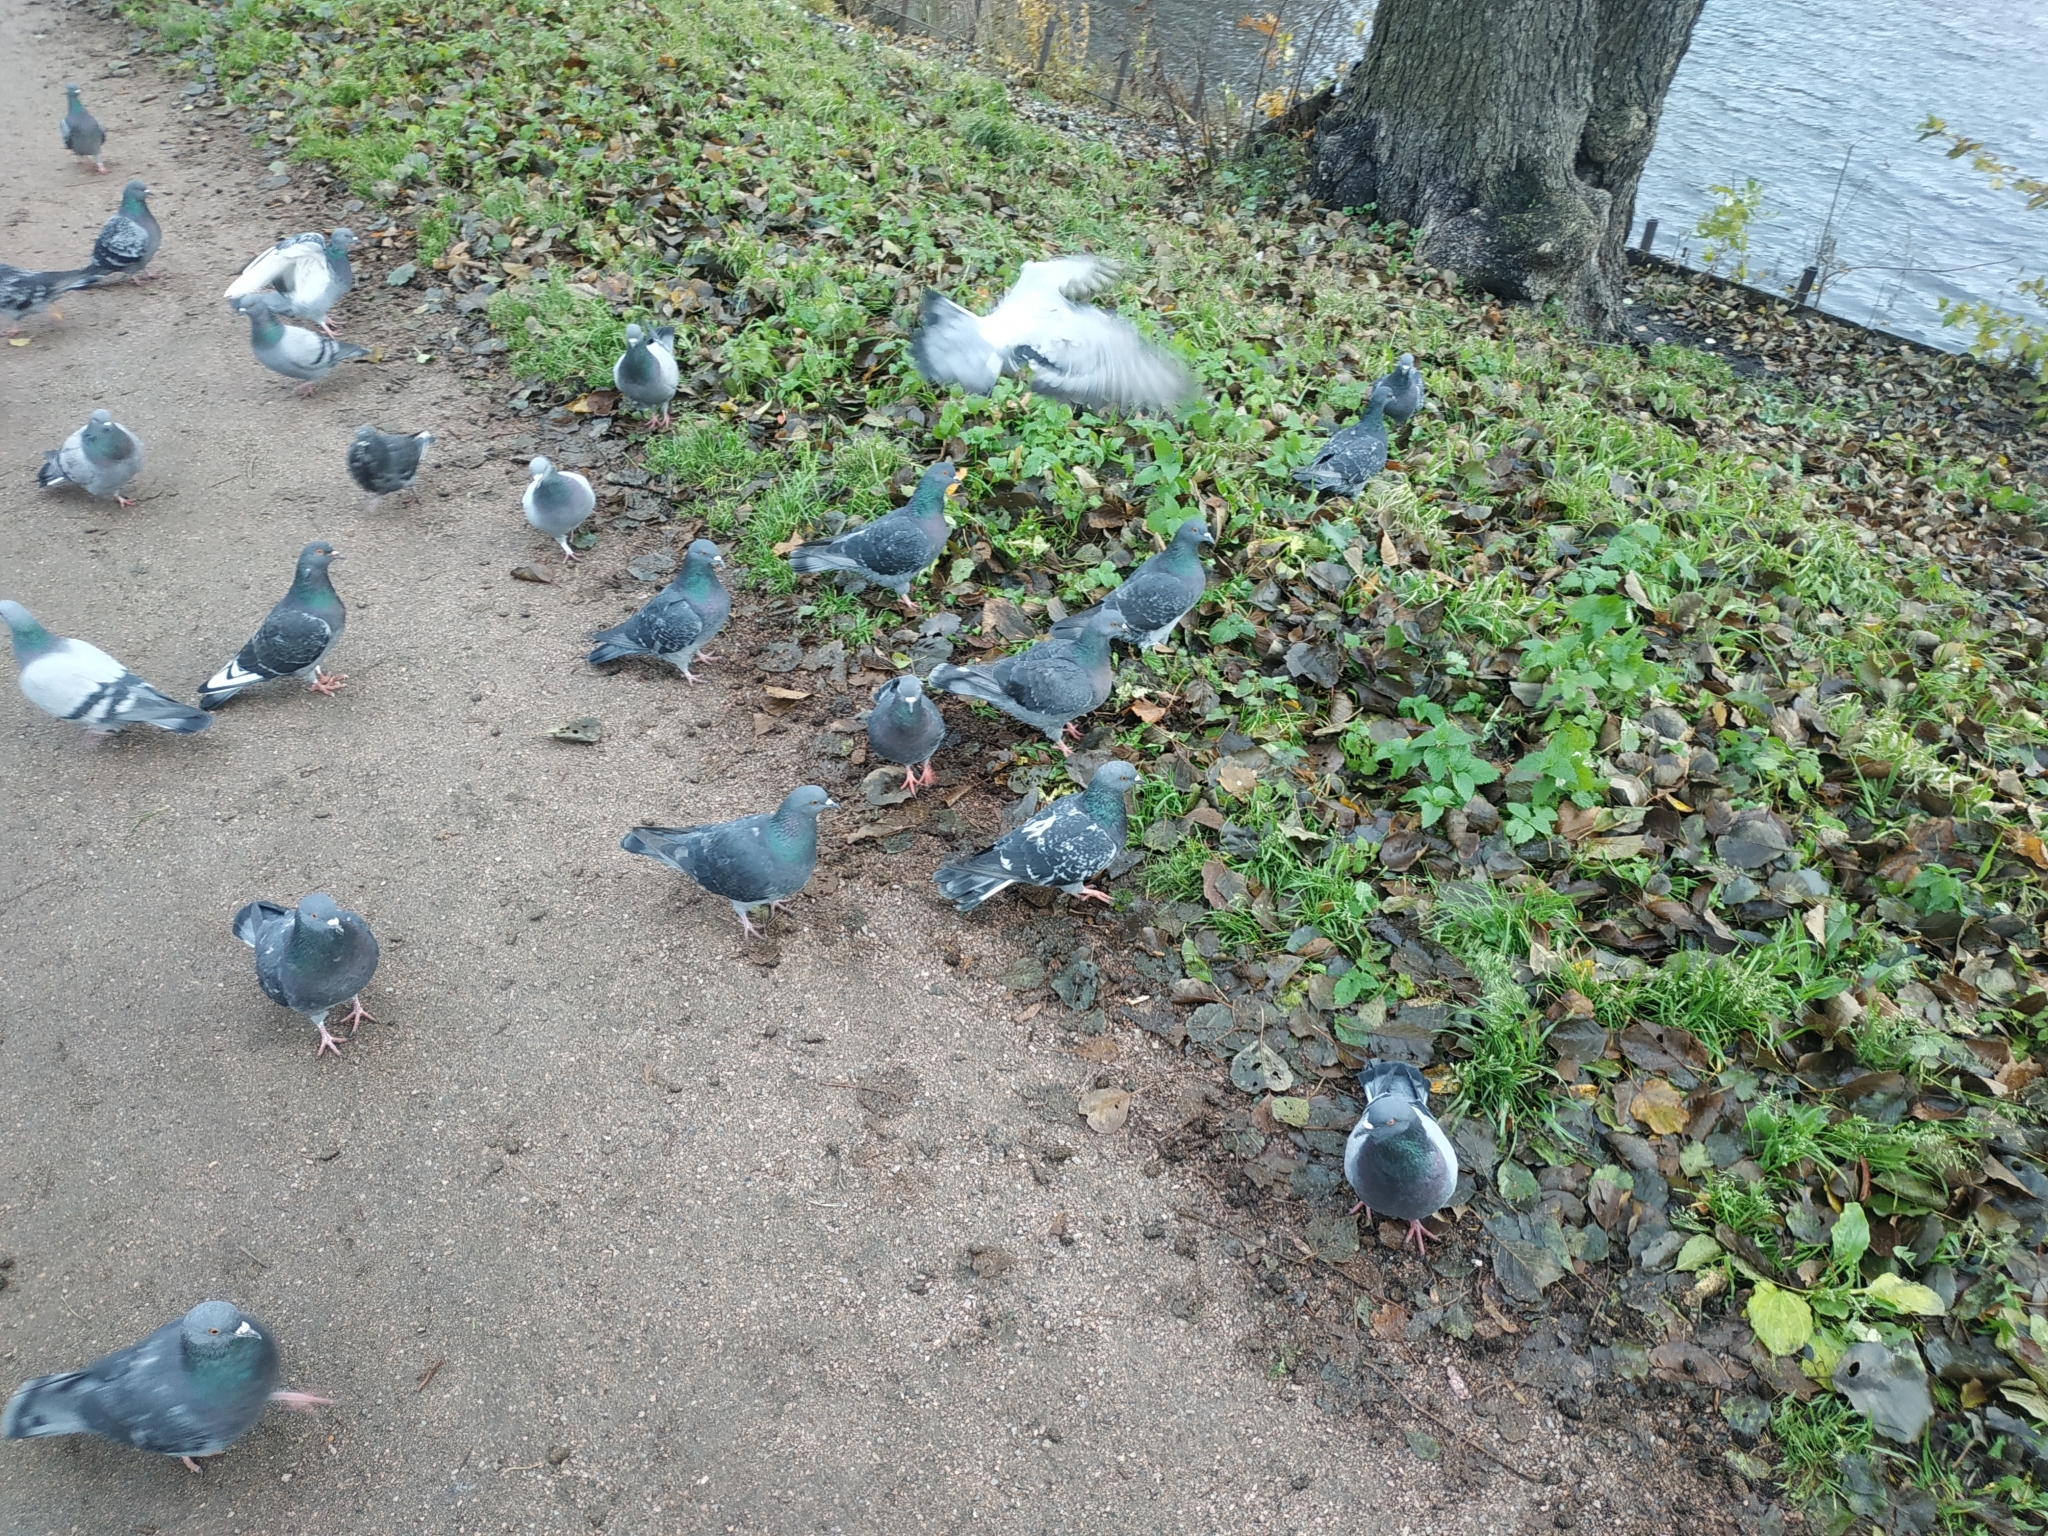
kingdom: Animalia
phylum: Chordata
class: Aves
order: Columbiformes
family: Columbidae
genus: Columba
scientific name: Columba livia
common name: Rock pigeon
